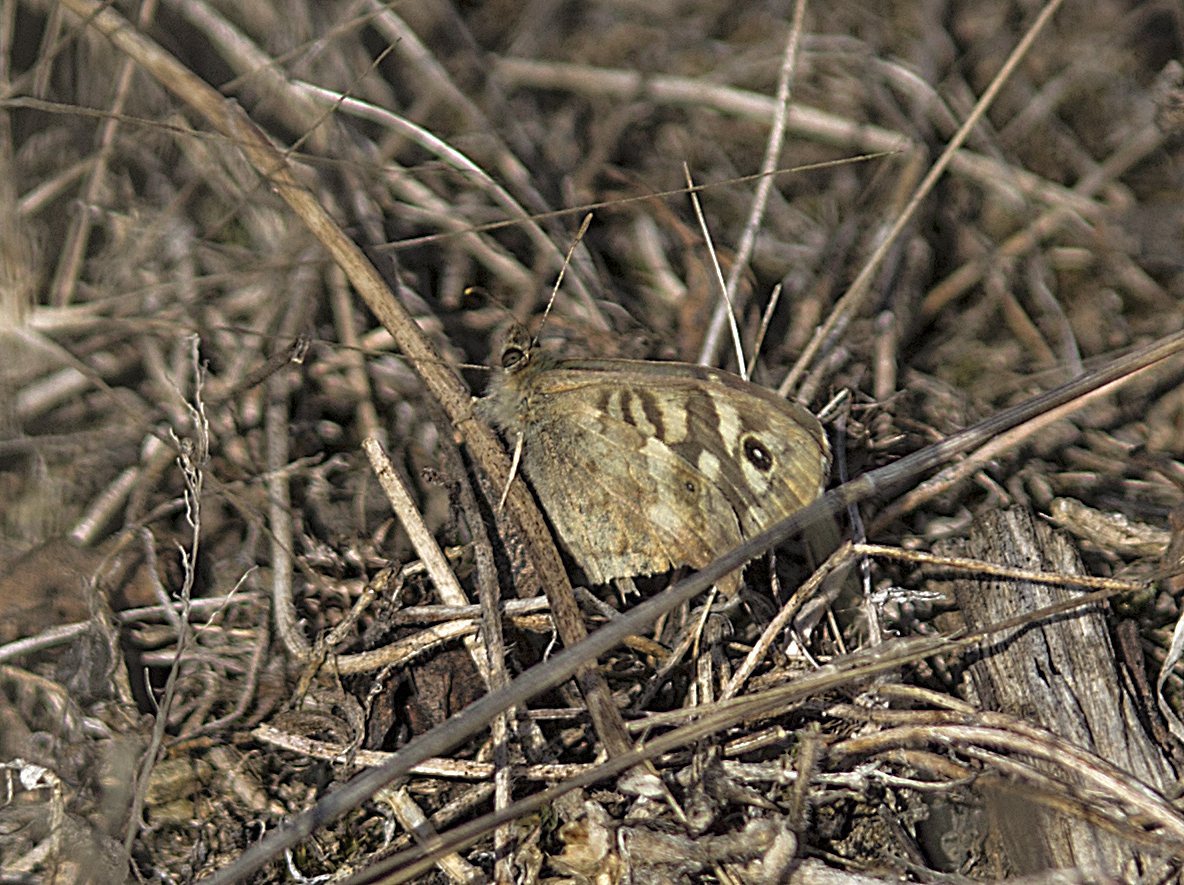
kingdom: Animalia
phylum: Arthropoda
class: Insecta
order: Lepidoptera
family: Nymphalidae
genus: Pararge
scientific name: Pararge aegeria
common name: Speckled wood
